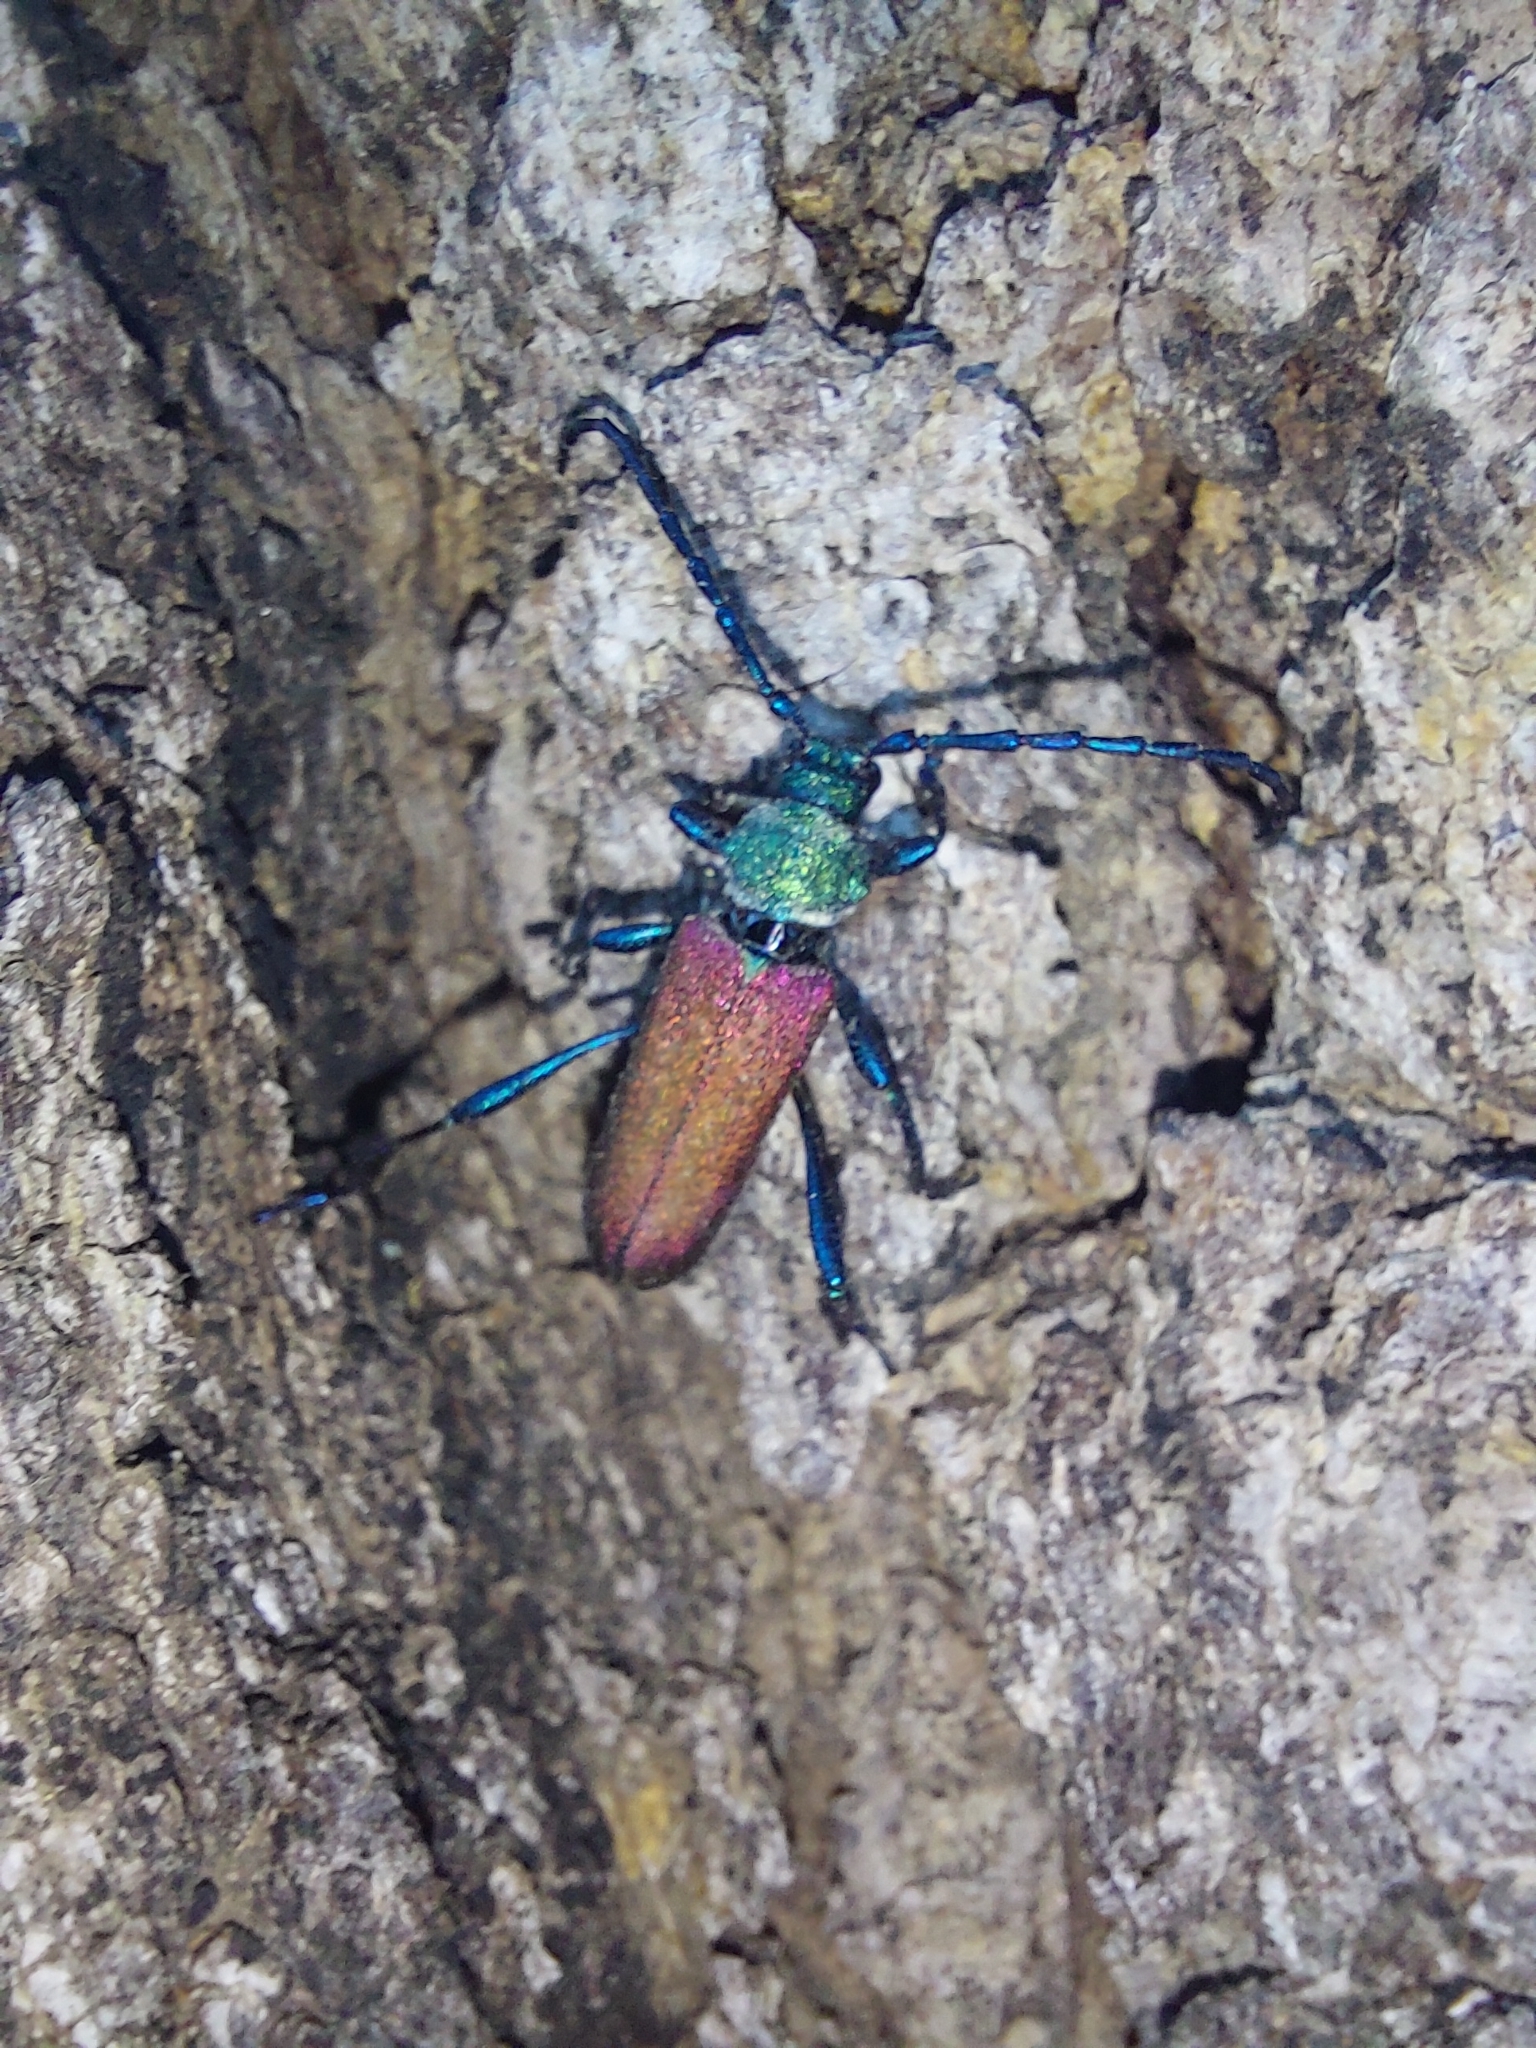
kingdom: Animalia
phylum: Arthropoda
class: Insecta
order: Coleoptera
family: Cerambycidae
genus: Phyllocnema
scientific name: Phyllocnema latipes
